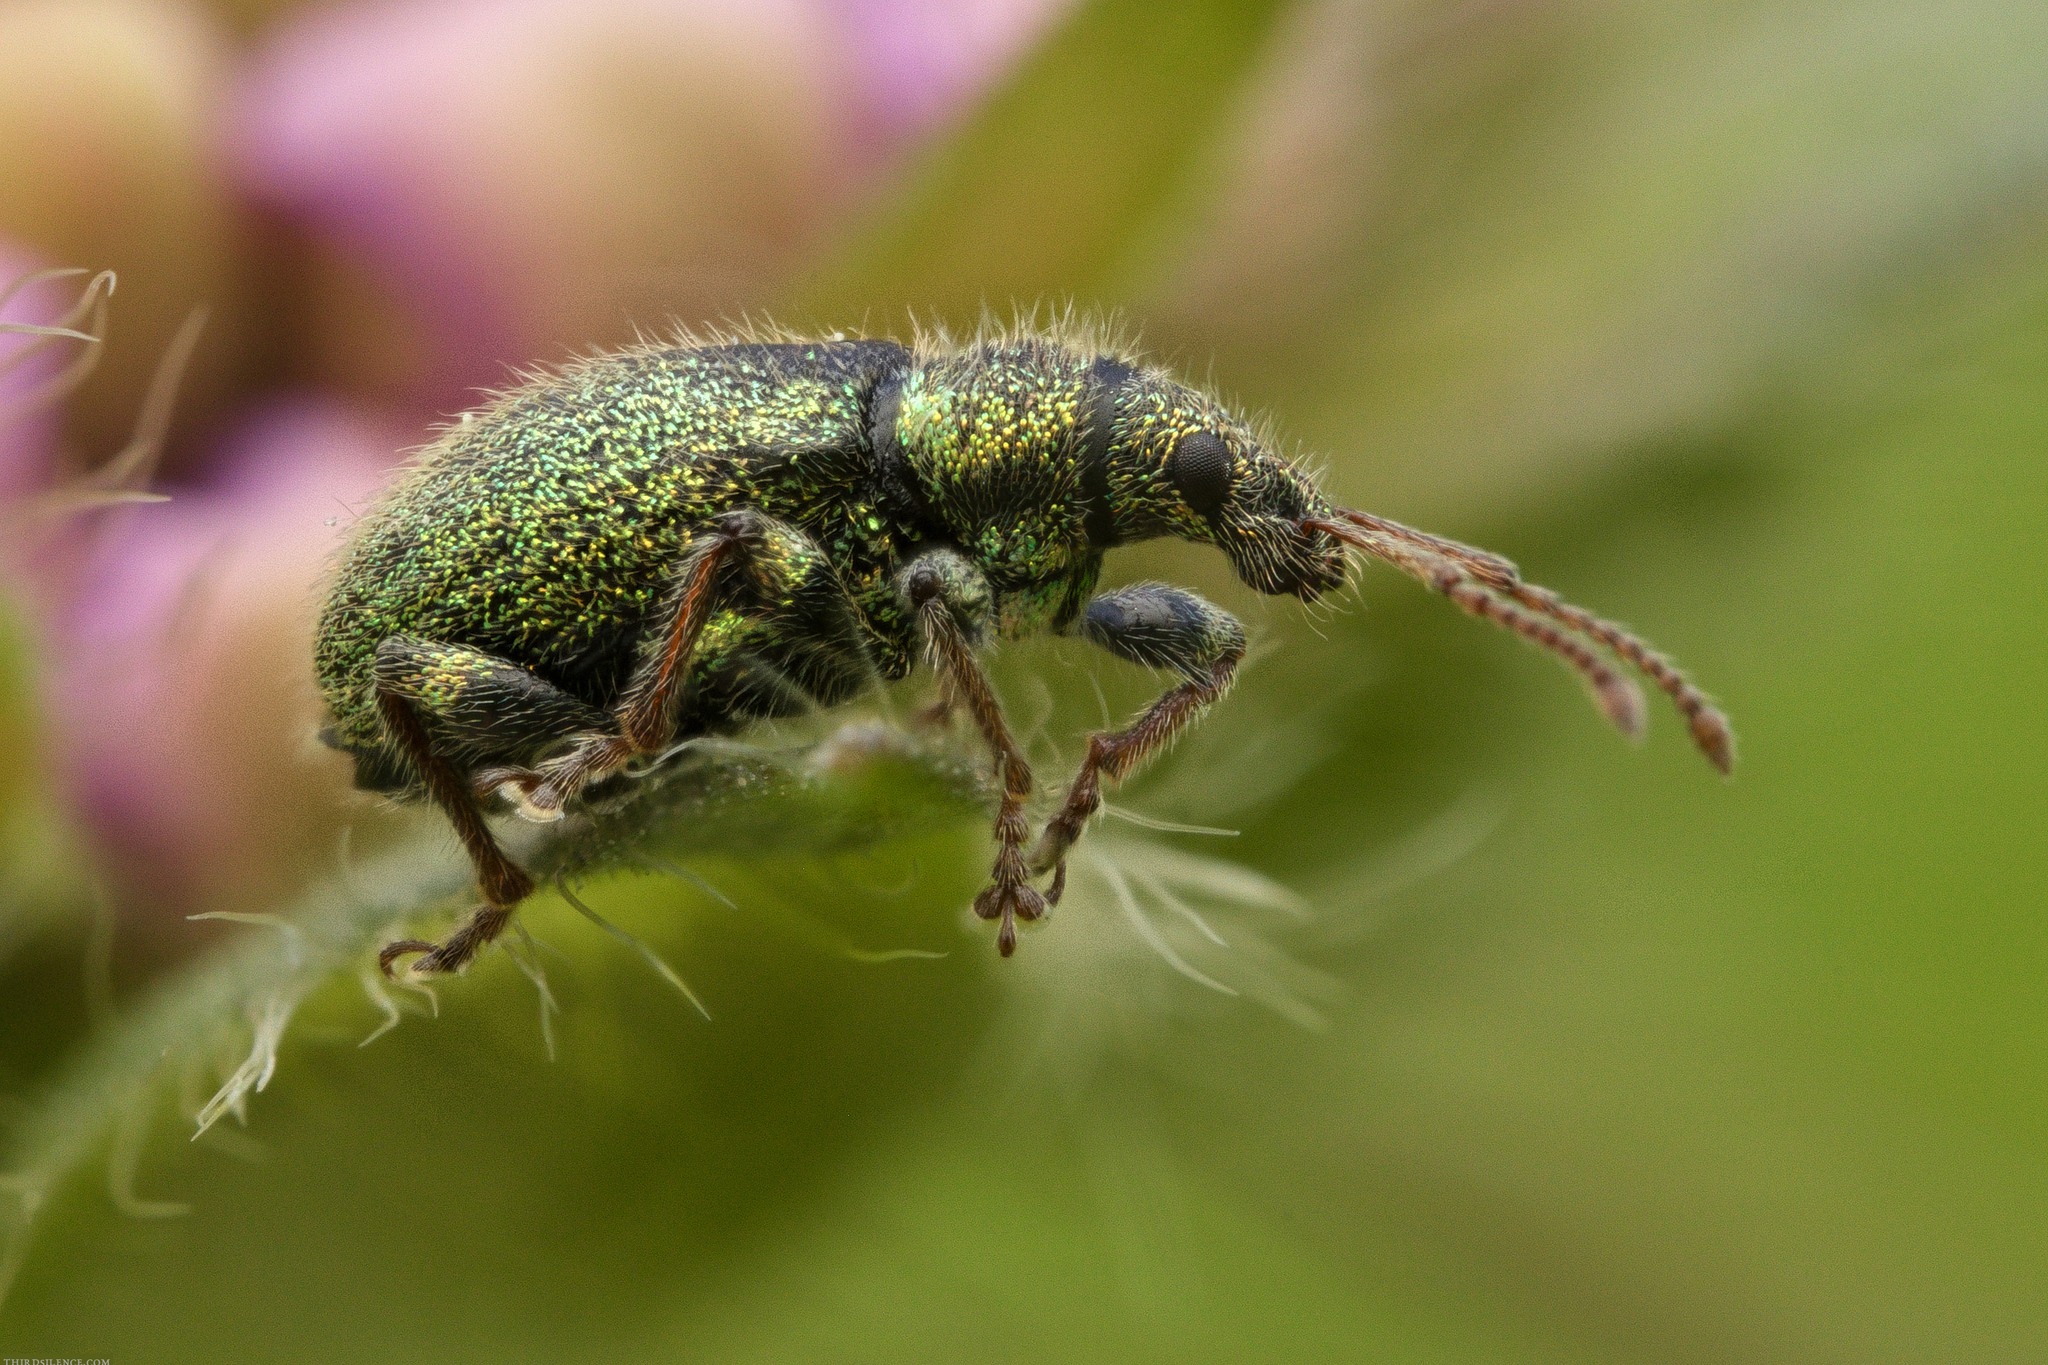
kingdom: Animalia
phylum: Arthropoda
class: Insecta
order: Coleoptera
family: Curculionidae
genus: Phyllobius
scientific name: Phyllobius betulinus
